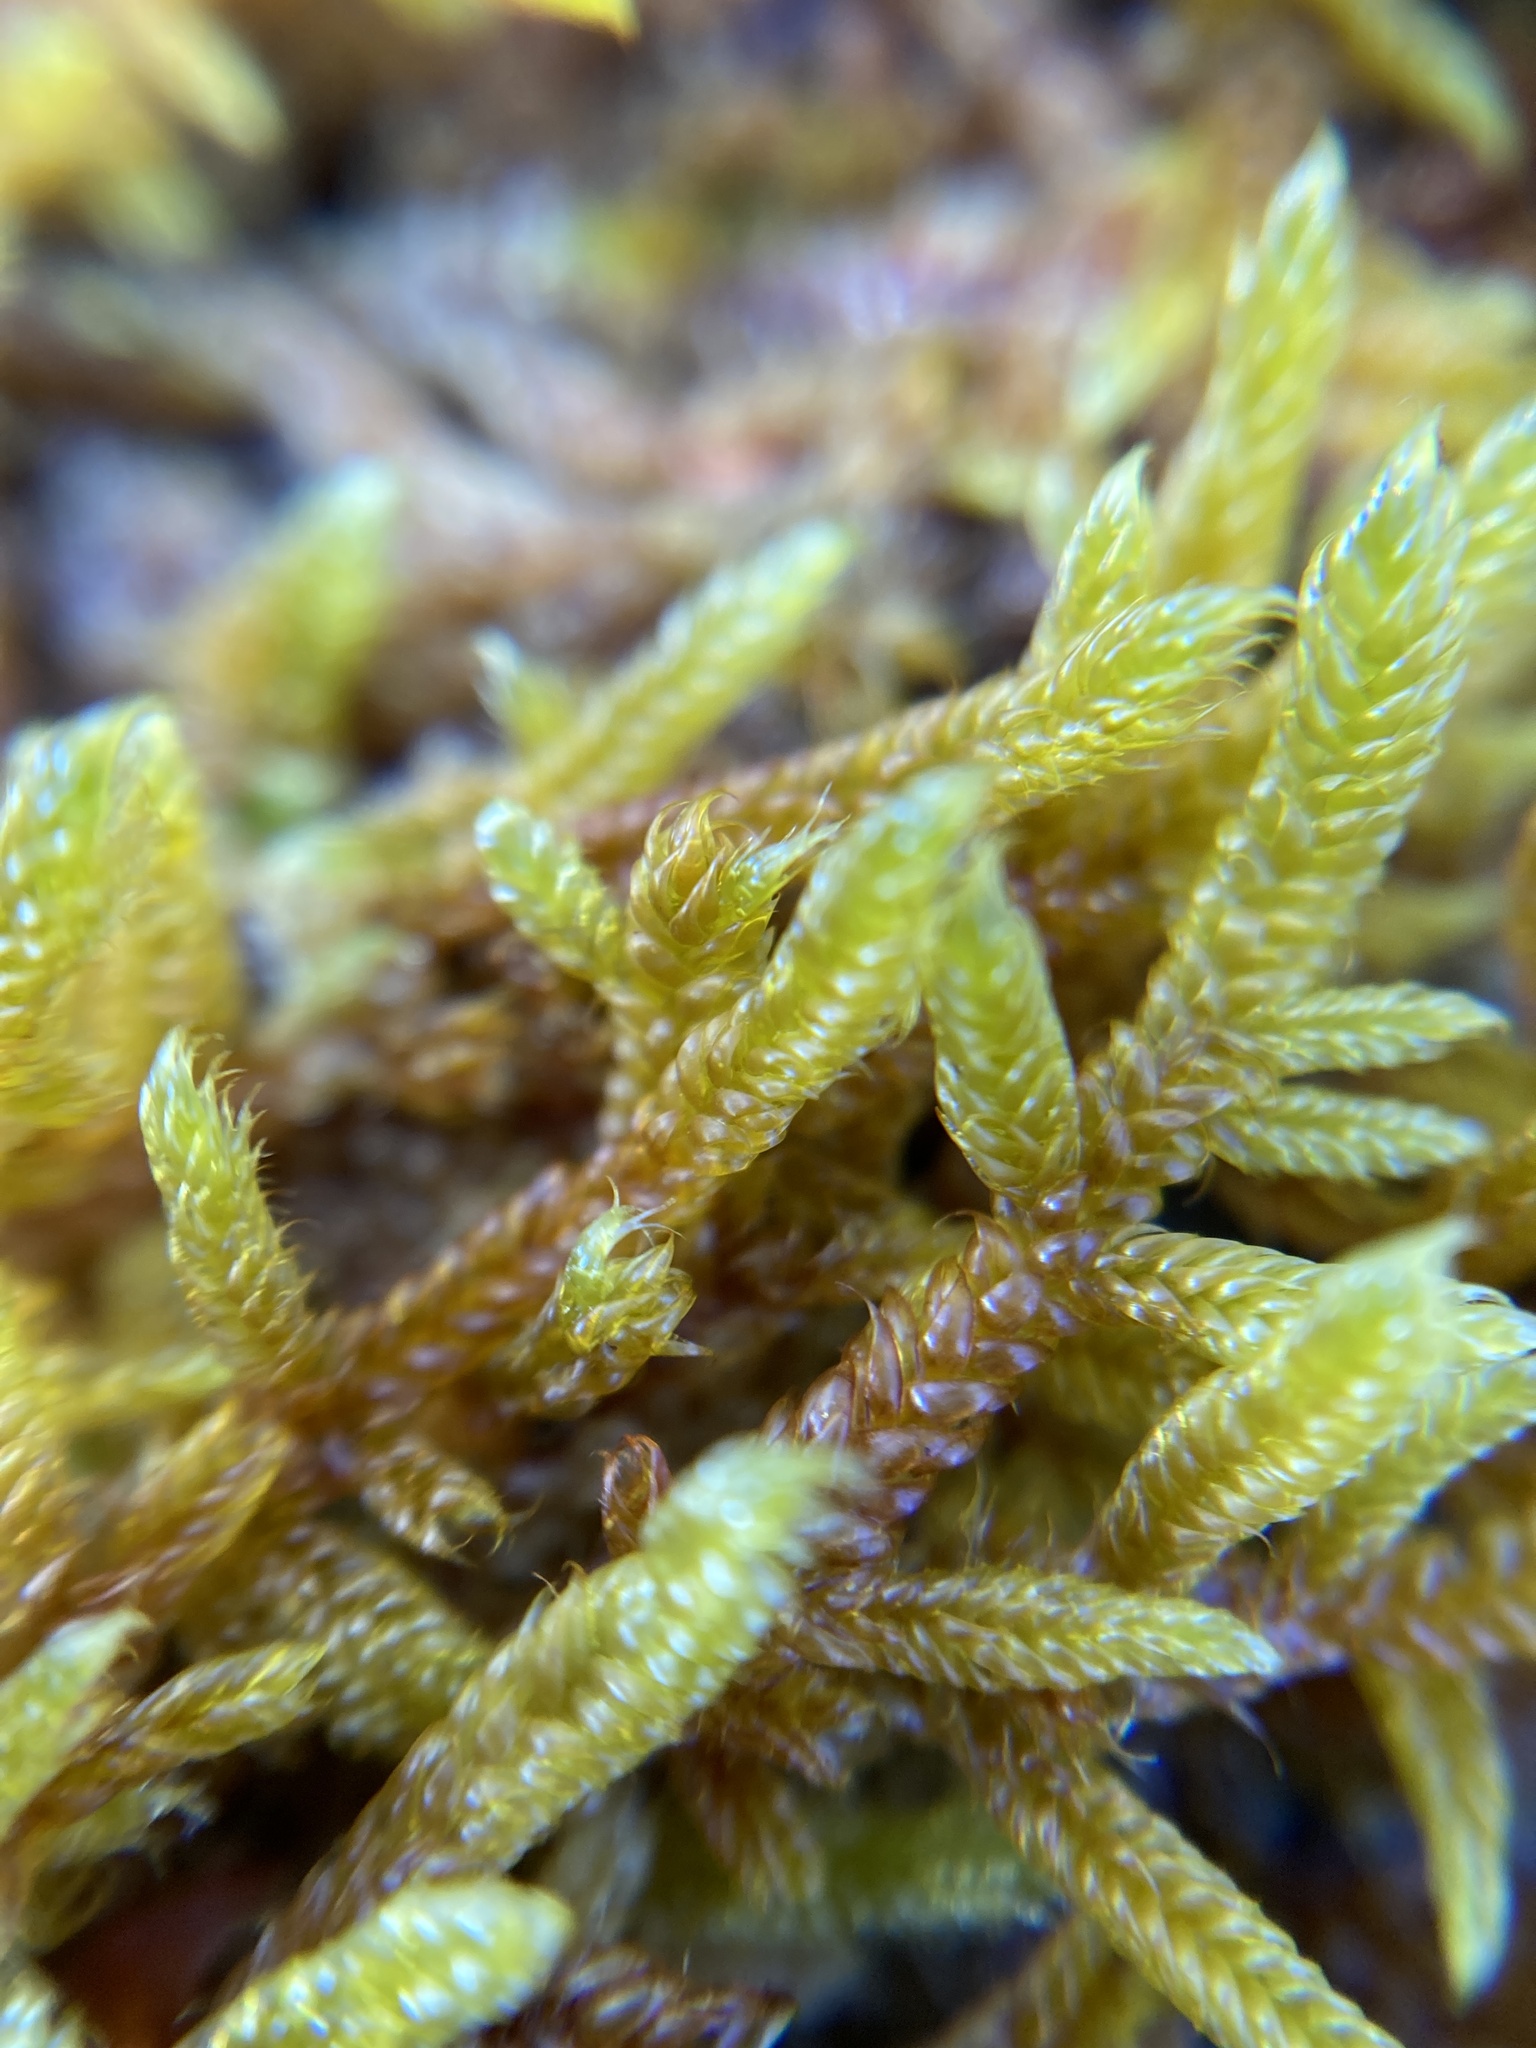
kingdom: Plantae
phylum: Bryophyta
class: Bryopsida
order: Hypnales
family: Hypnaceae
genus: Hypnum
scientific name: Hypnum cupressiforme
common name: Cypress-leaved plait-moss
